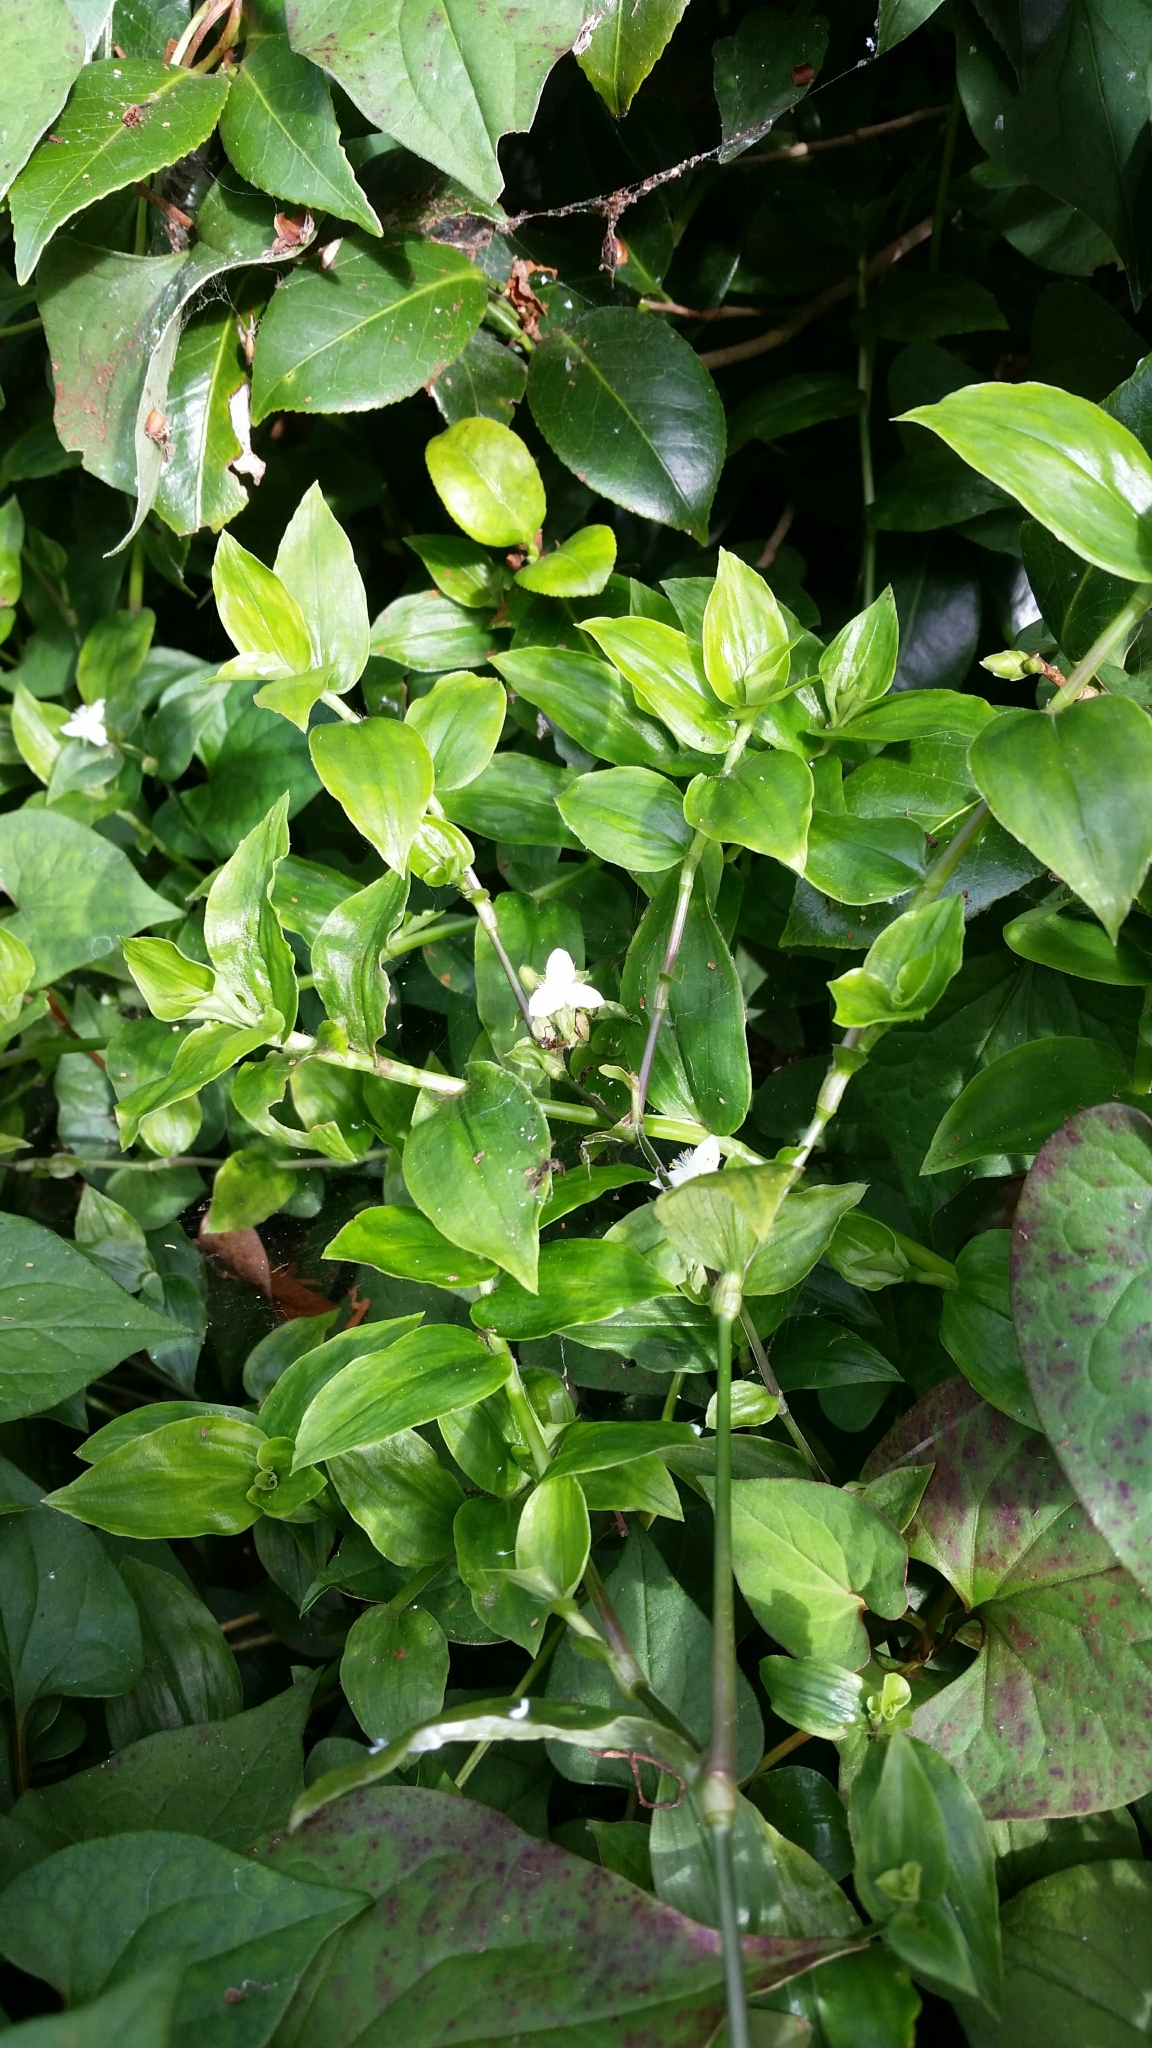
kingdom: Plantae
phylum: Tracheophyta
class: Liliopsida
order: Commelinales
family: Commelinaceae
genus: Tradescantia
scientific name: Tradescantia fluminensis
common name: Wandering-jew
